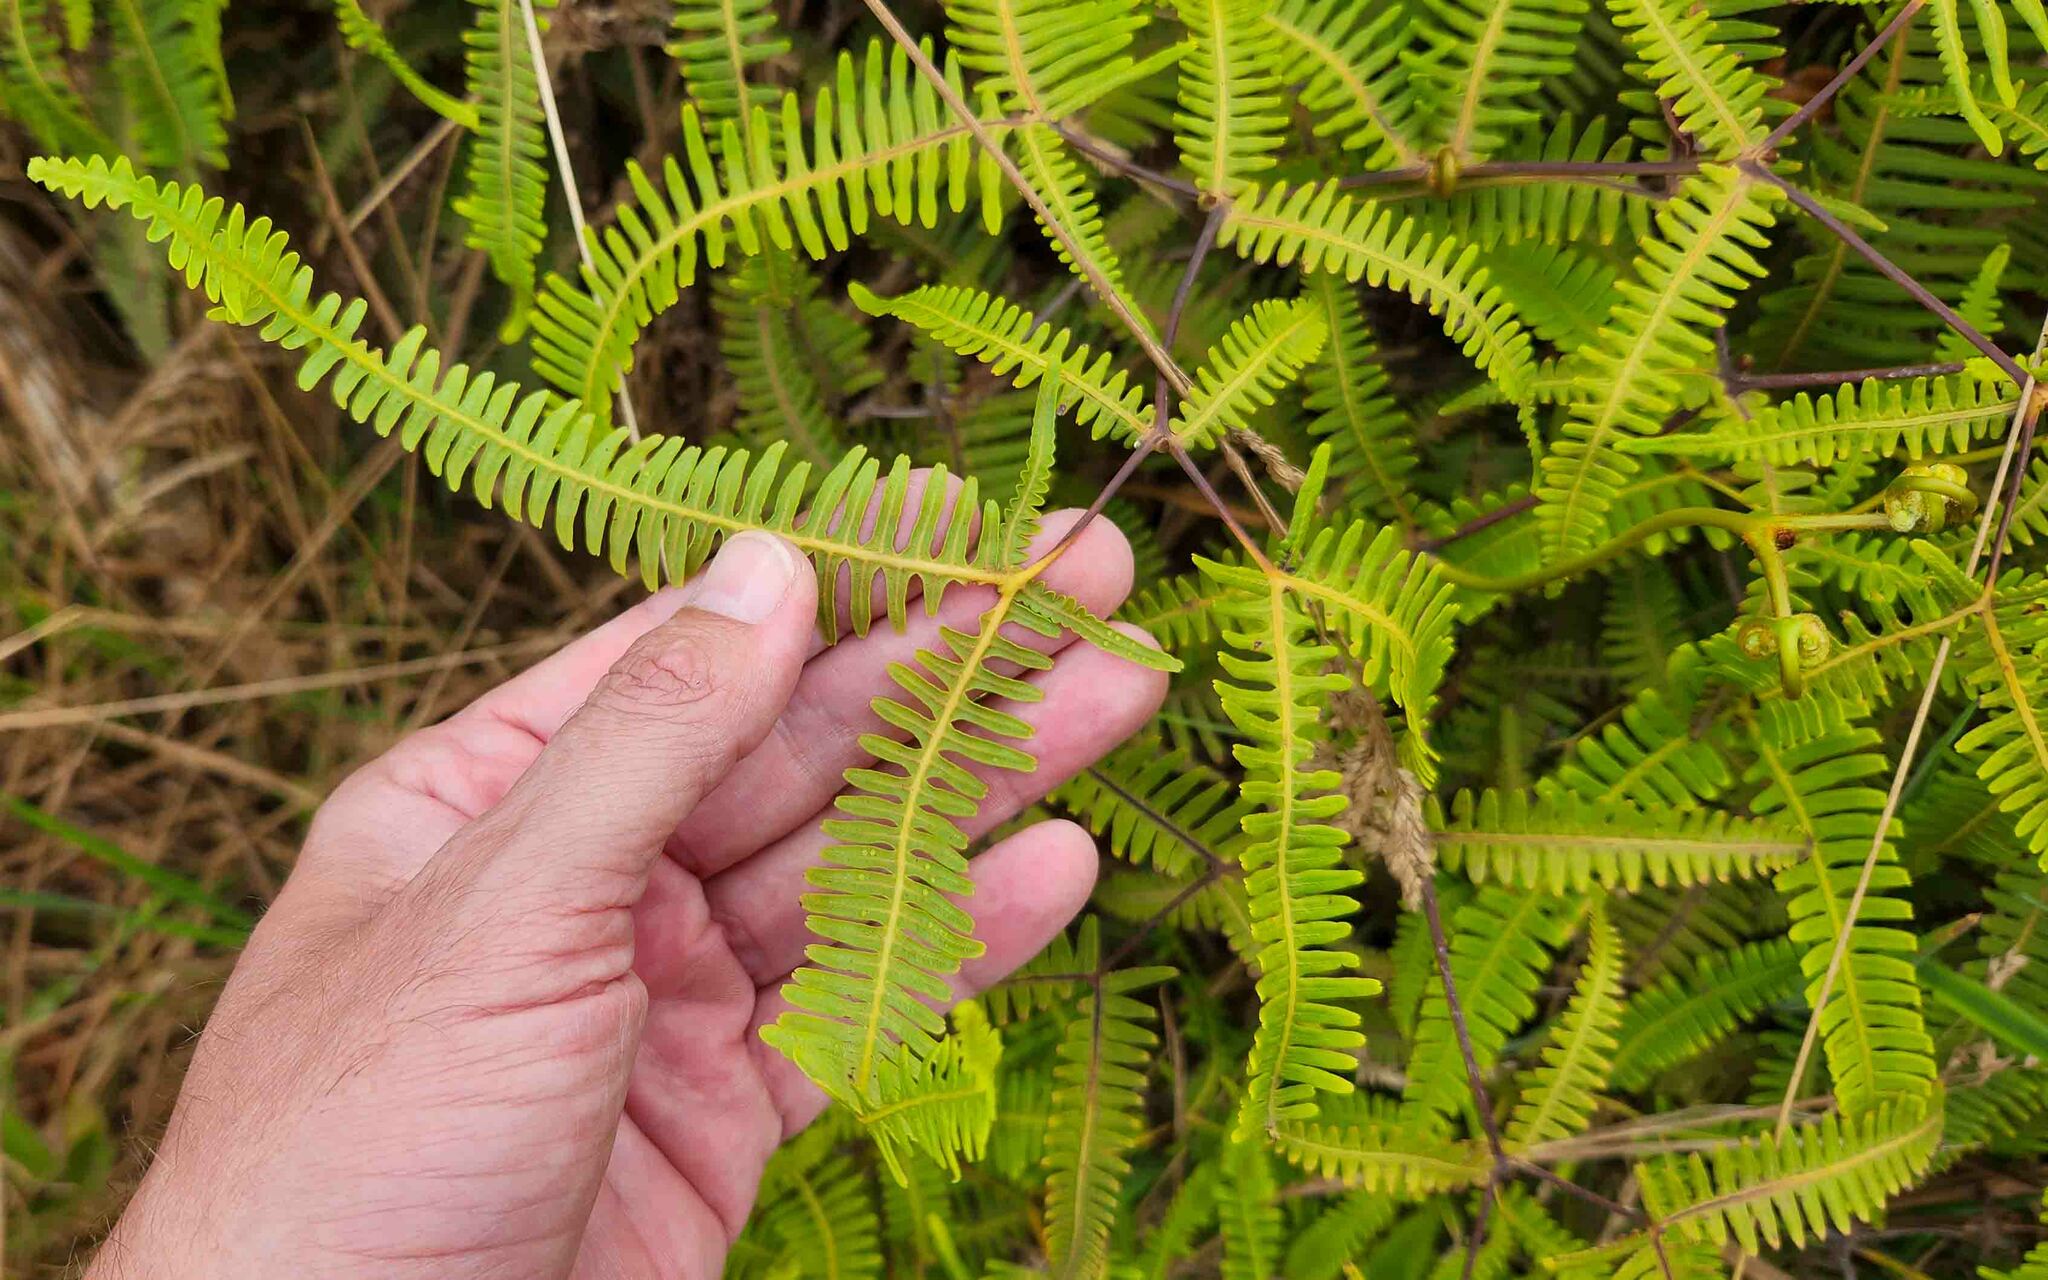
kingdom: Plantae
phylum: Tracheophyta
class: Polypodiopsida
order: Gleicheniales
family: Gleicheniaceae
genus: Dicranopteris
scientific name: Dicranopteris linearis
